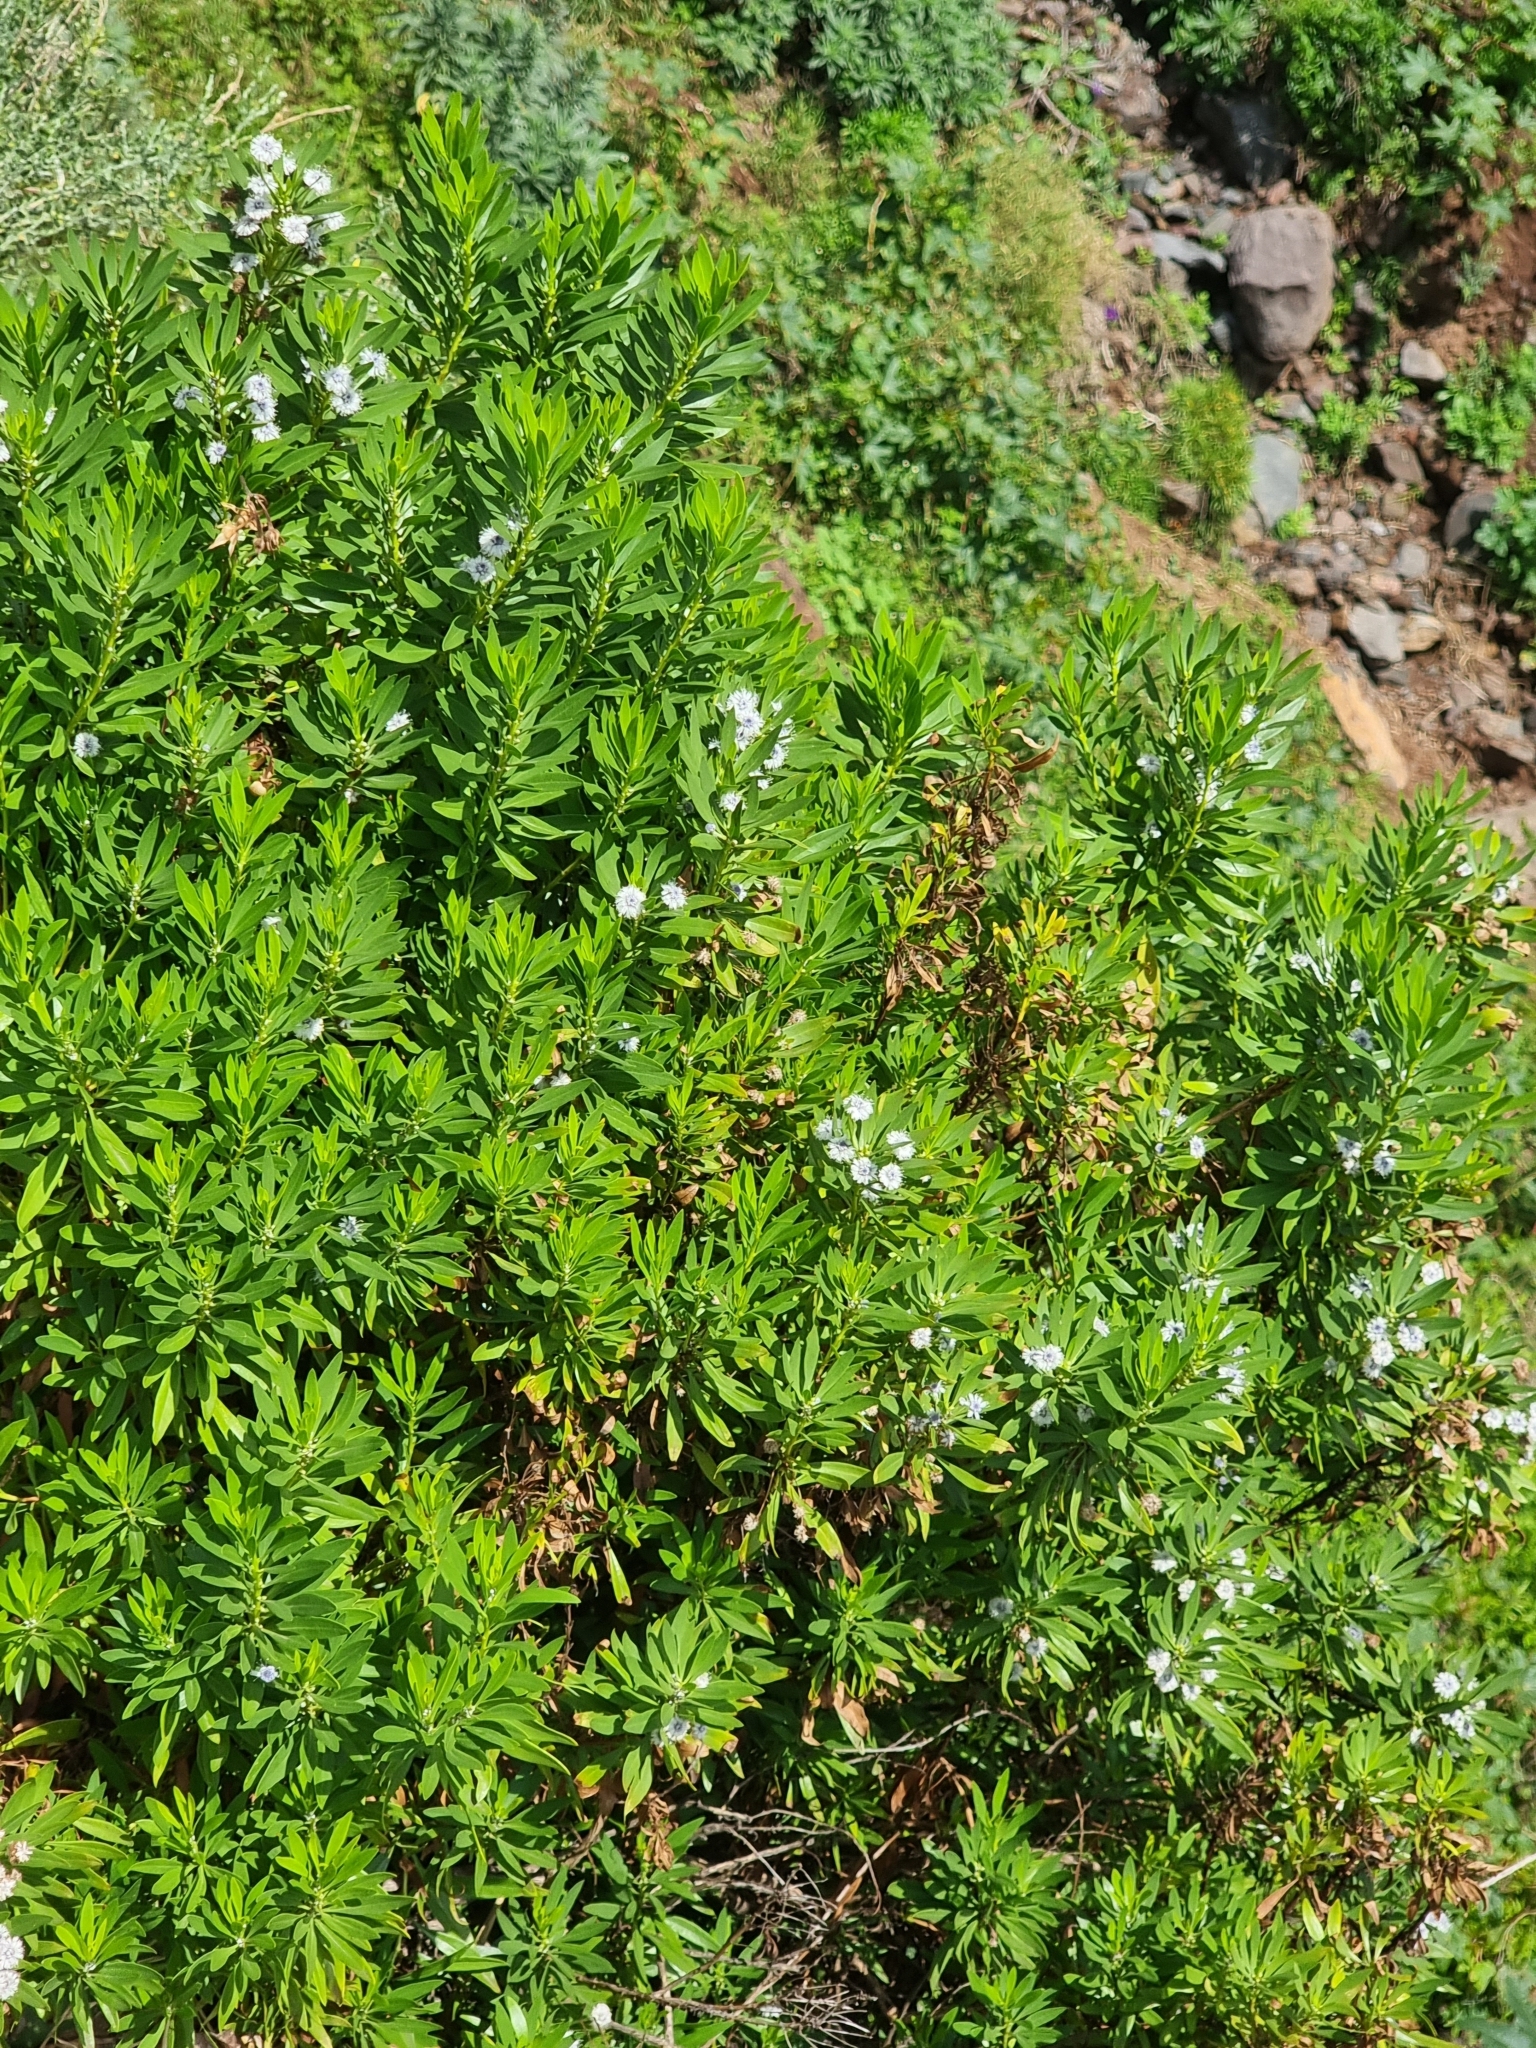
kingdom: Plantae
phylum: Tracheophyta
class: Magnoliopsida
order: Lamiales
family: Plantaginaceae
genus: Globularia
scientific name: Globularia salicina
